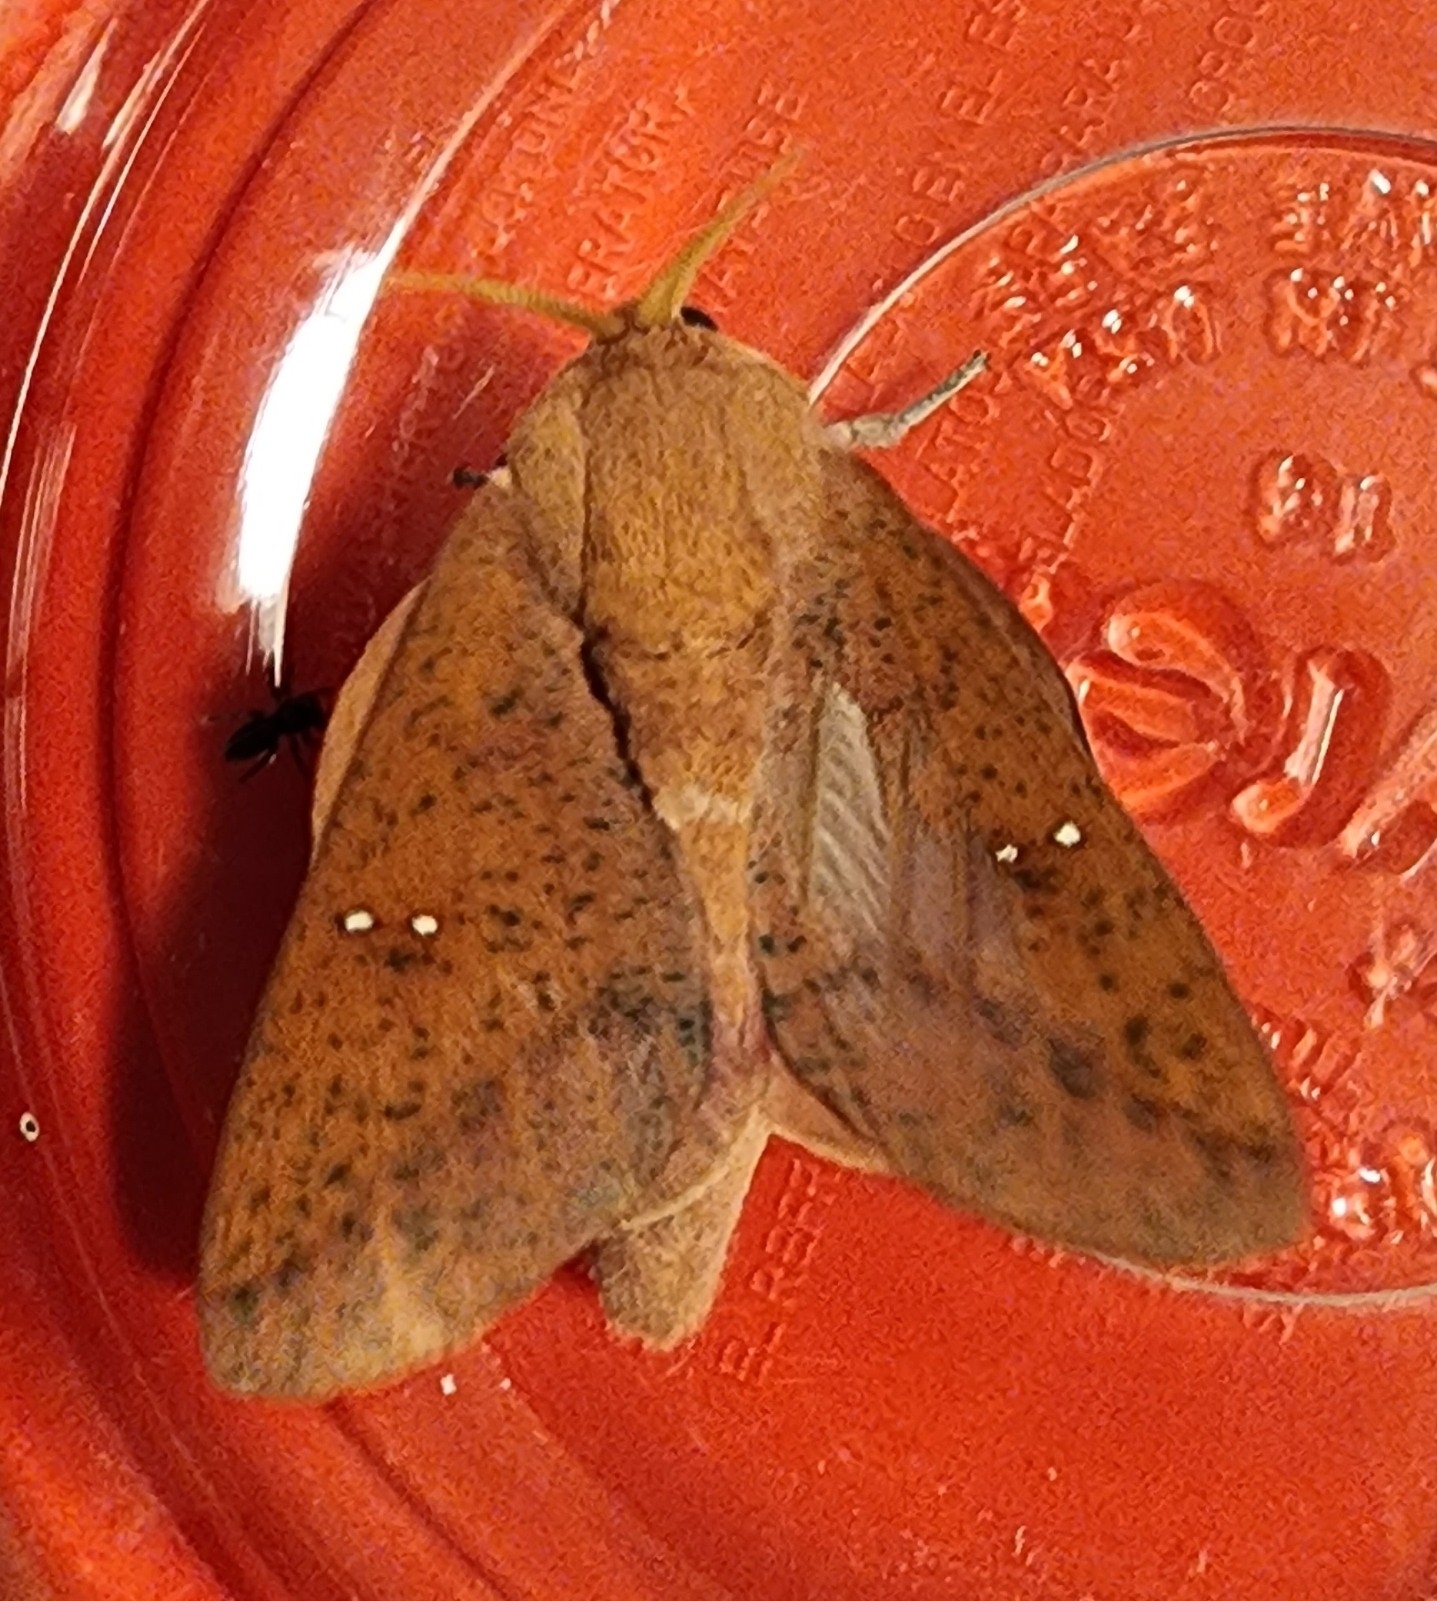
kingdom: Animalia
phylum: Arthropoda
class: Insecta
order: Lepidoptera
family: Saturniidae
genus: Syssphinx
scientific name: Syssphinx bicolor
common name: Honey locust moth
